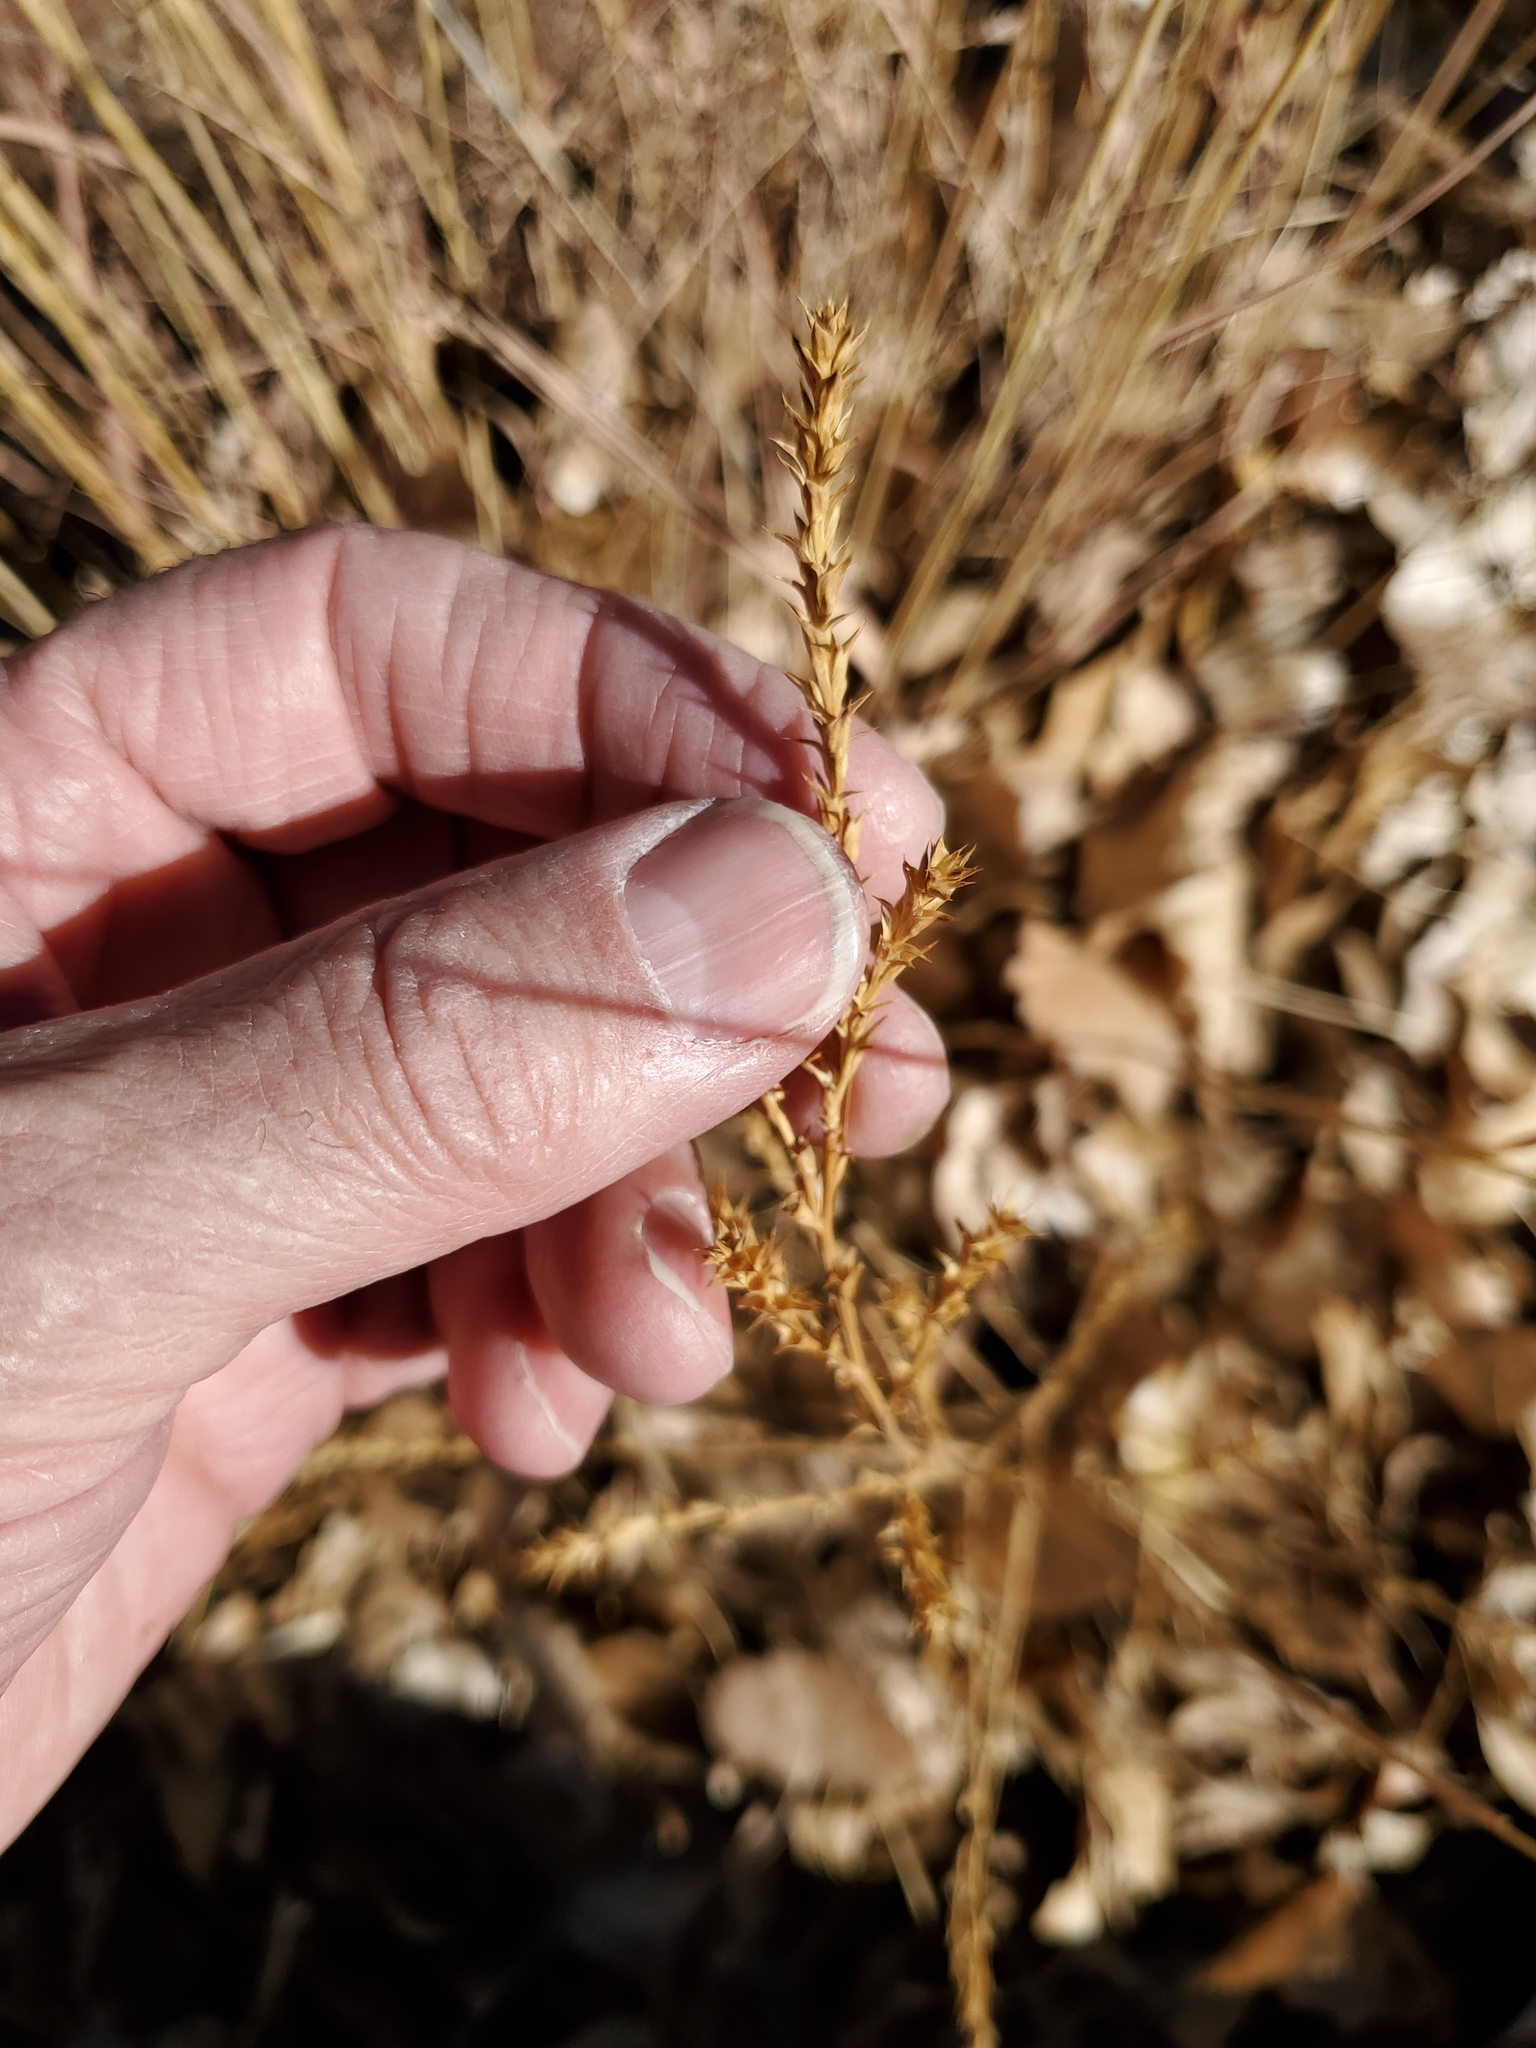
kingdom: Plantae
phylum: Tracheophyta
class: Magnoliopsida
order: Caryophyllales
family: Amaranthaceae
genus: Salsola
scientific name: Salsola tragus
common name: Prickly russian thistle
